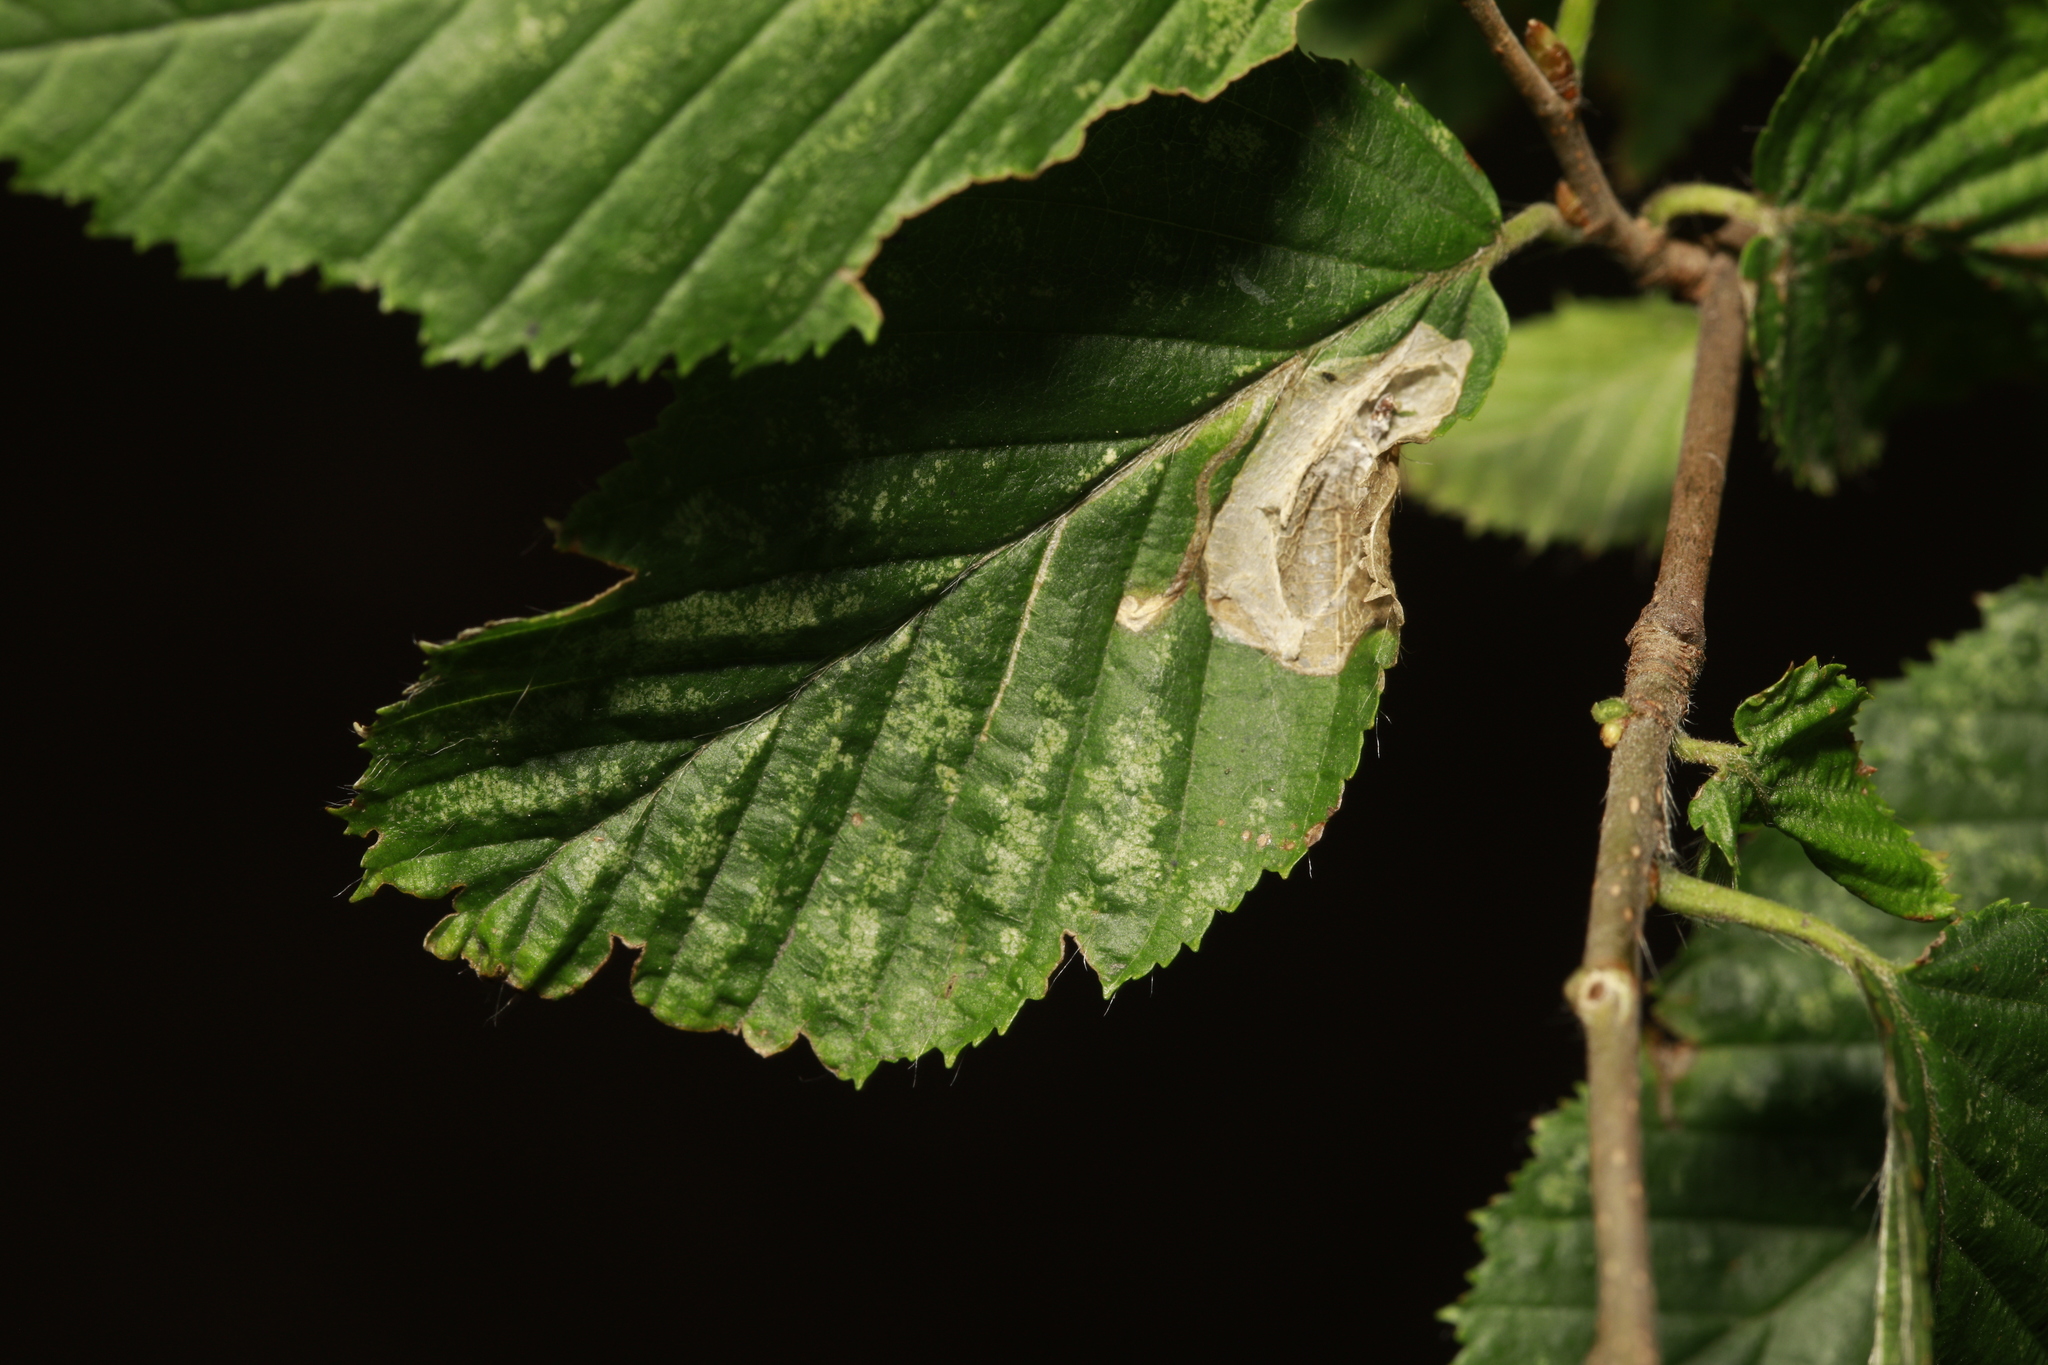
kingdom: Animalia
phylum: Arthropoda
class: Insecta
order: Lepidoptera
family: Gracillariidae
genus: Phyllonorycter
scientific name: Phyllonorycter esperella
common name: Dark hornbeam midget
